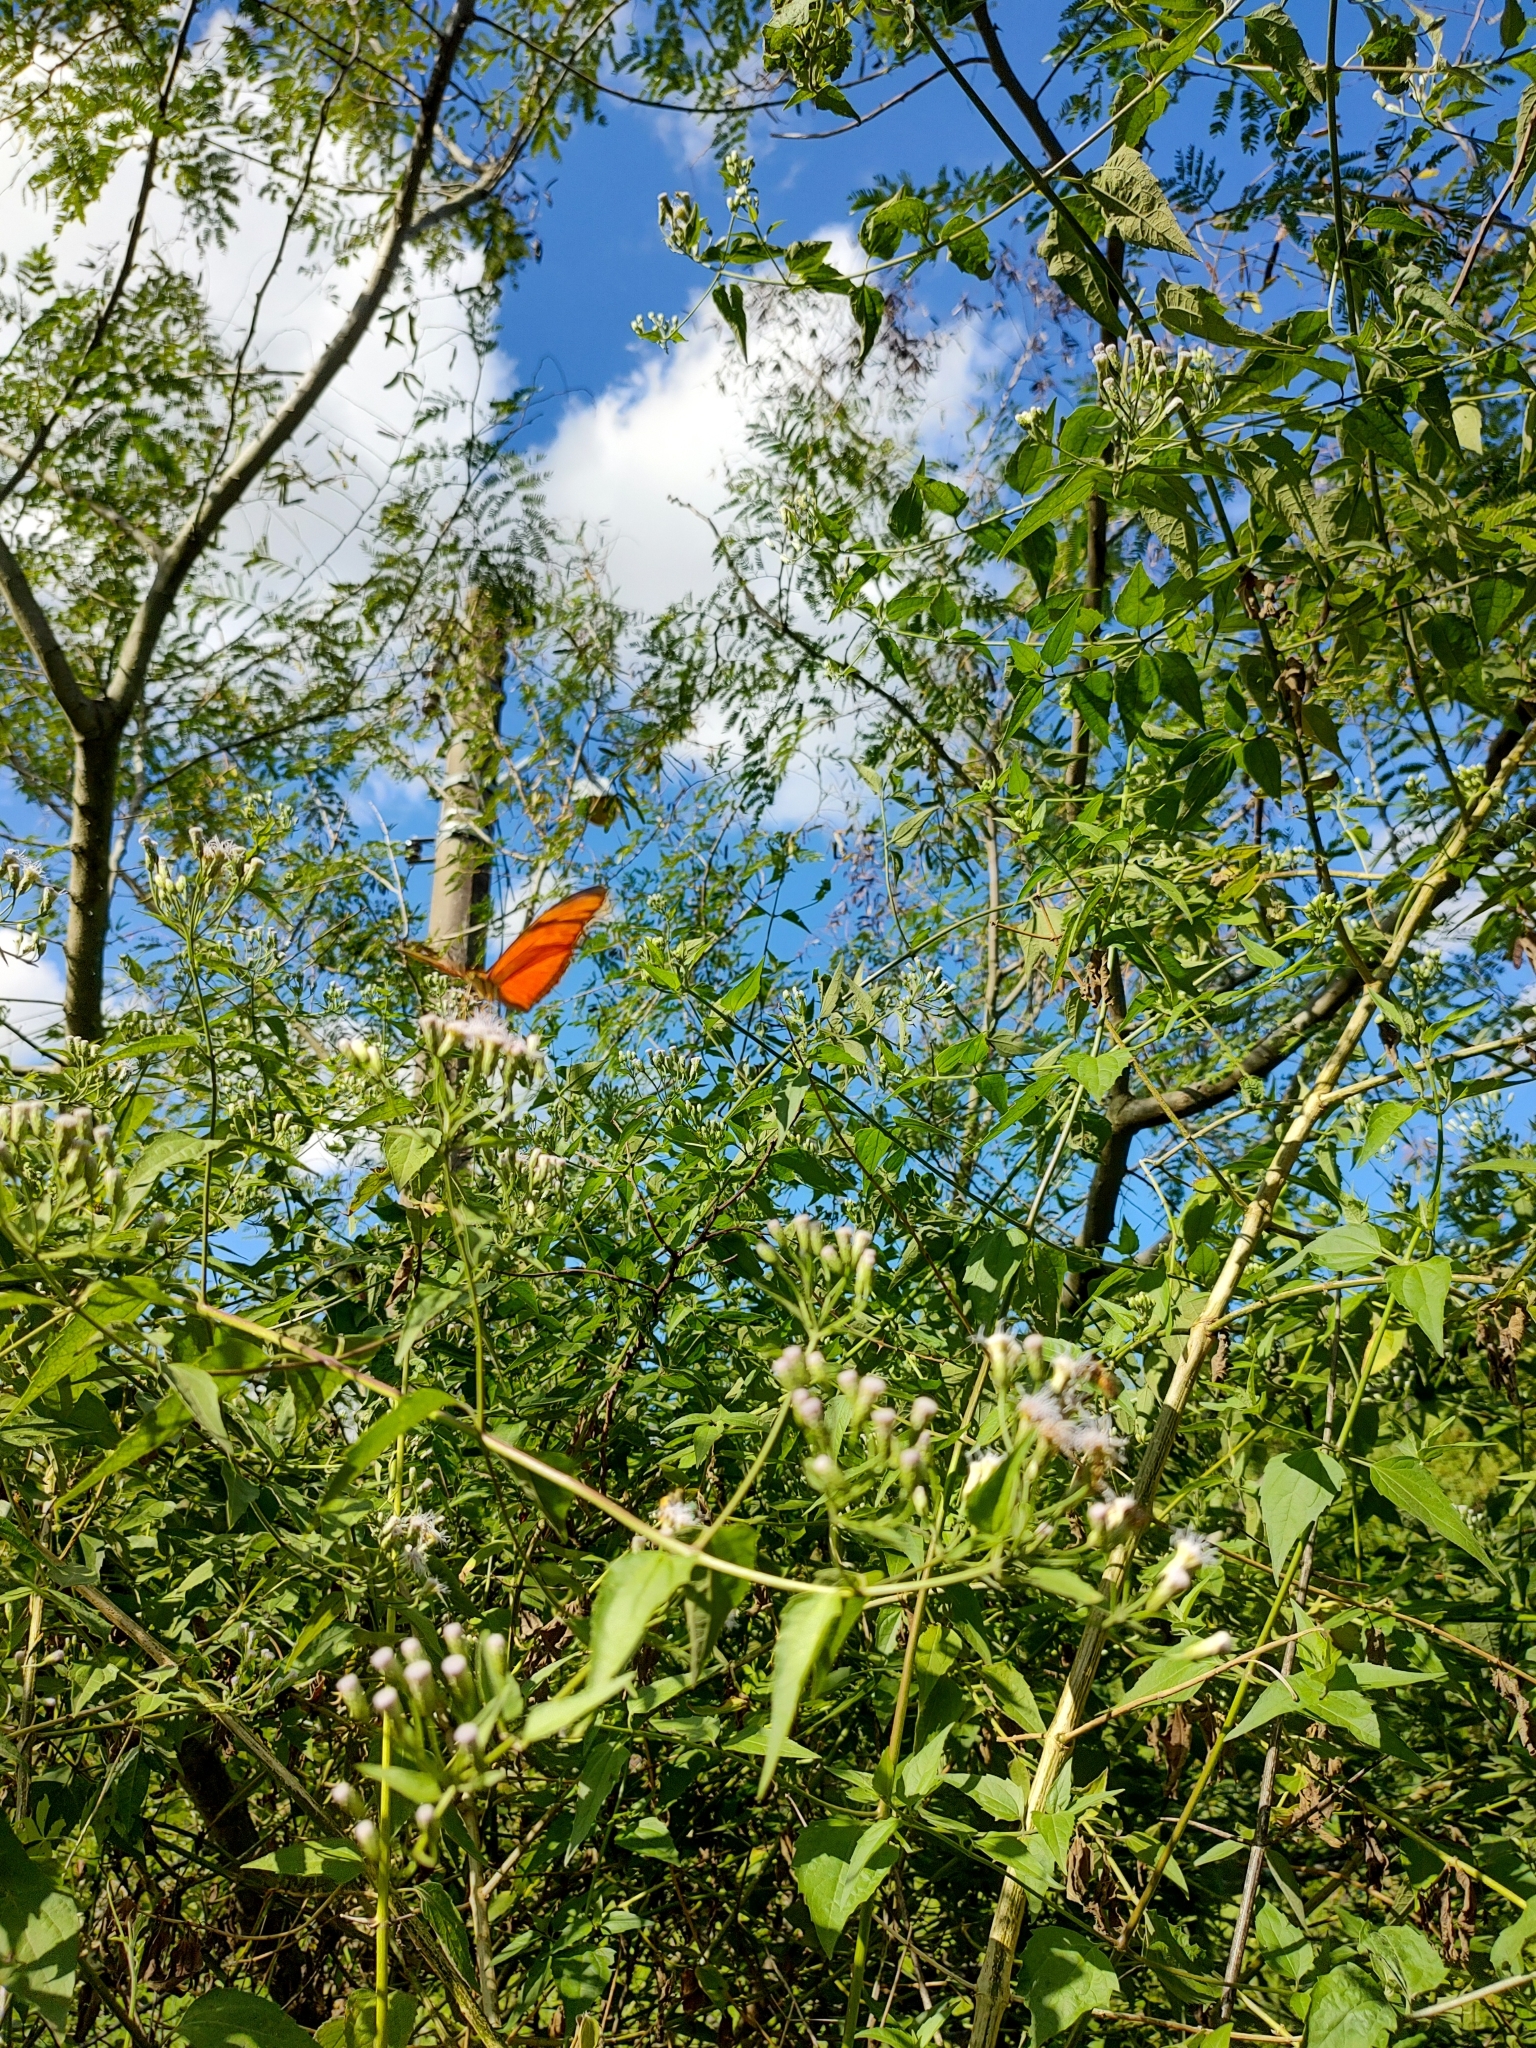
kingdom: Animalia
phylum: Arthropoda
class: Insecta
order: Lepidoptera
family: Nymphalidae
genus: Dryas
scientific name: Dryas iulia
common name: Flambeau
